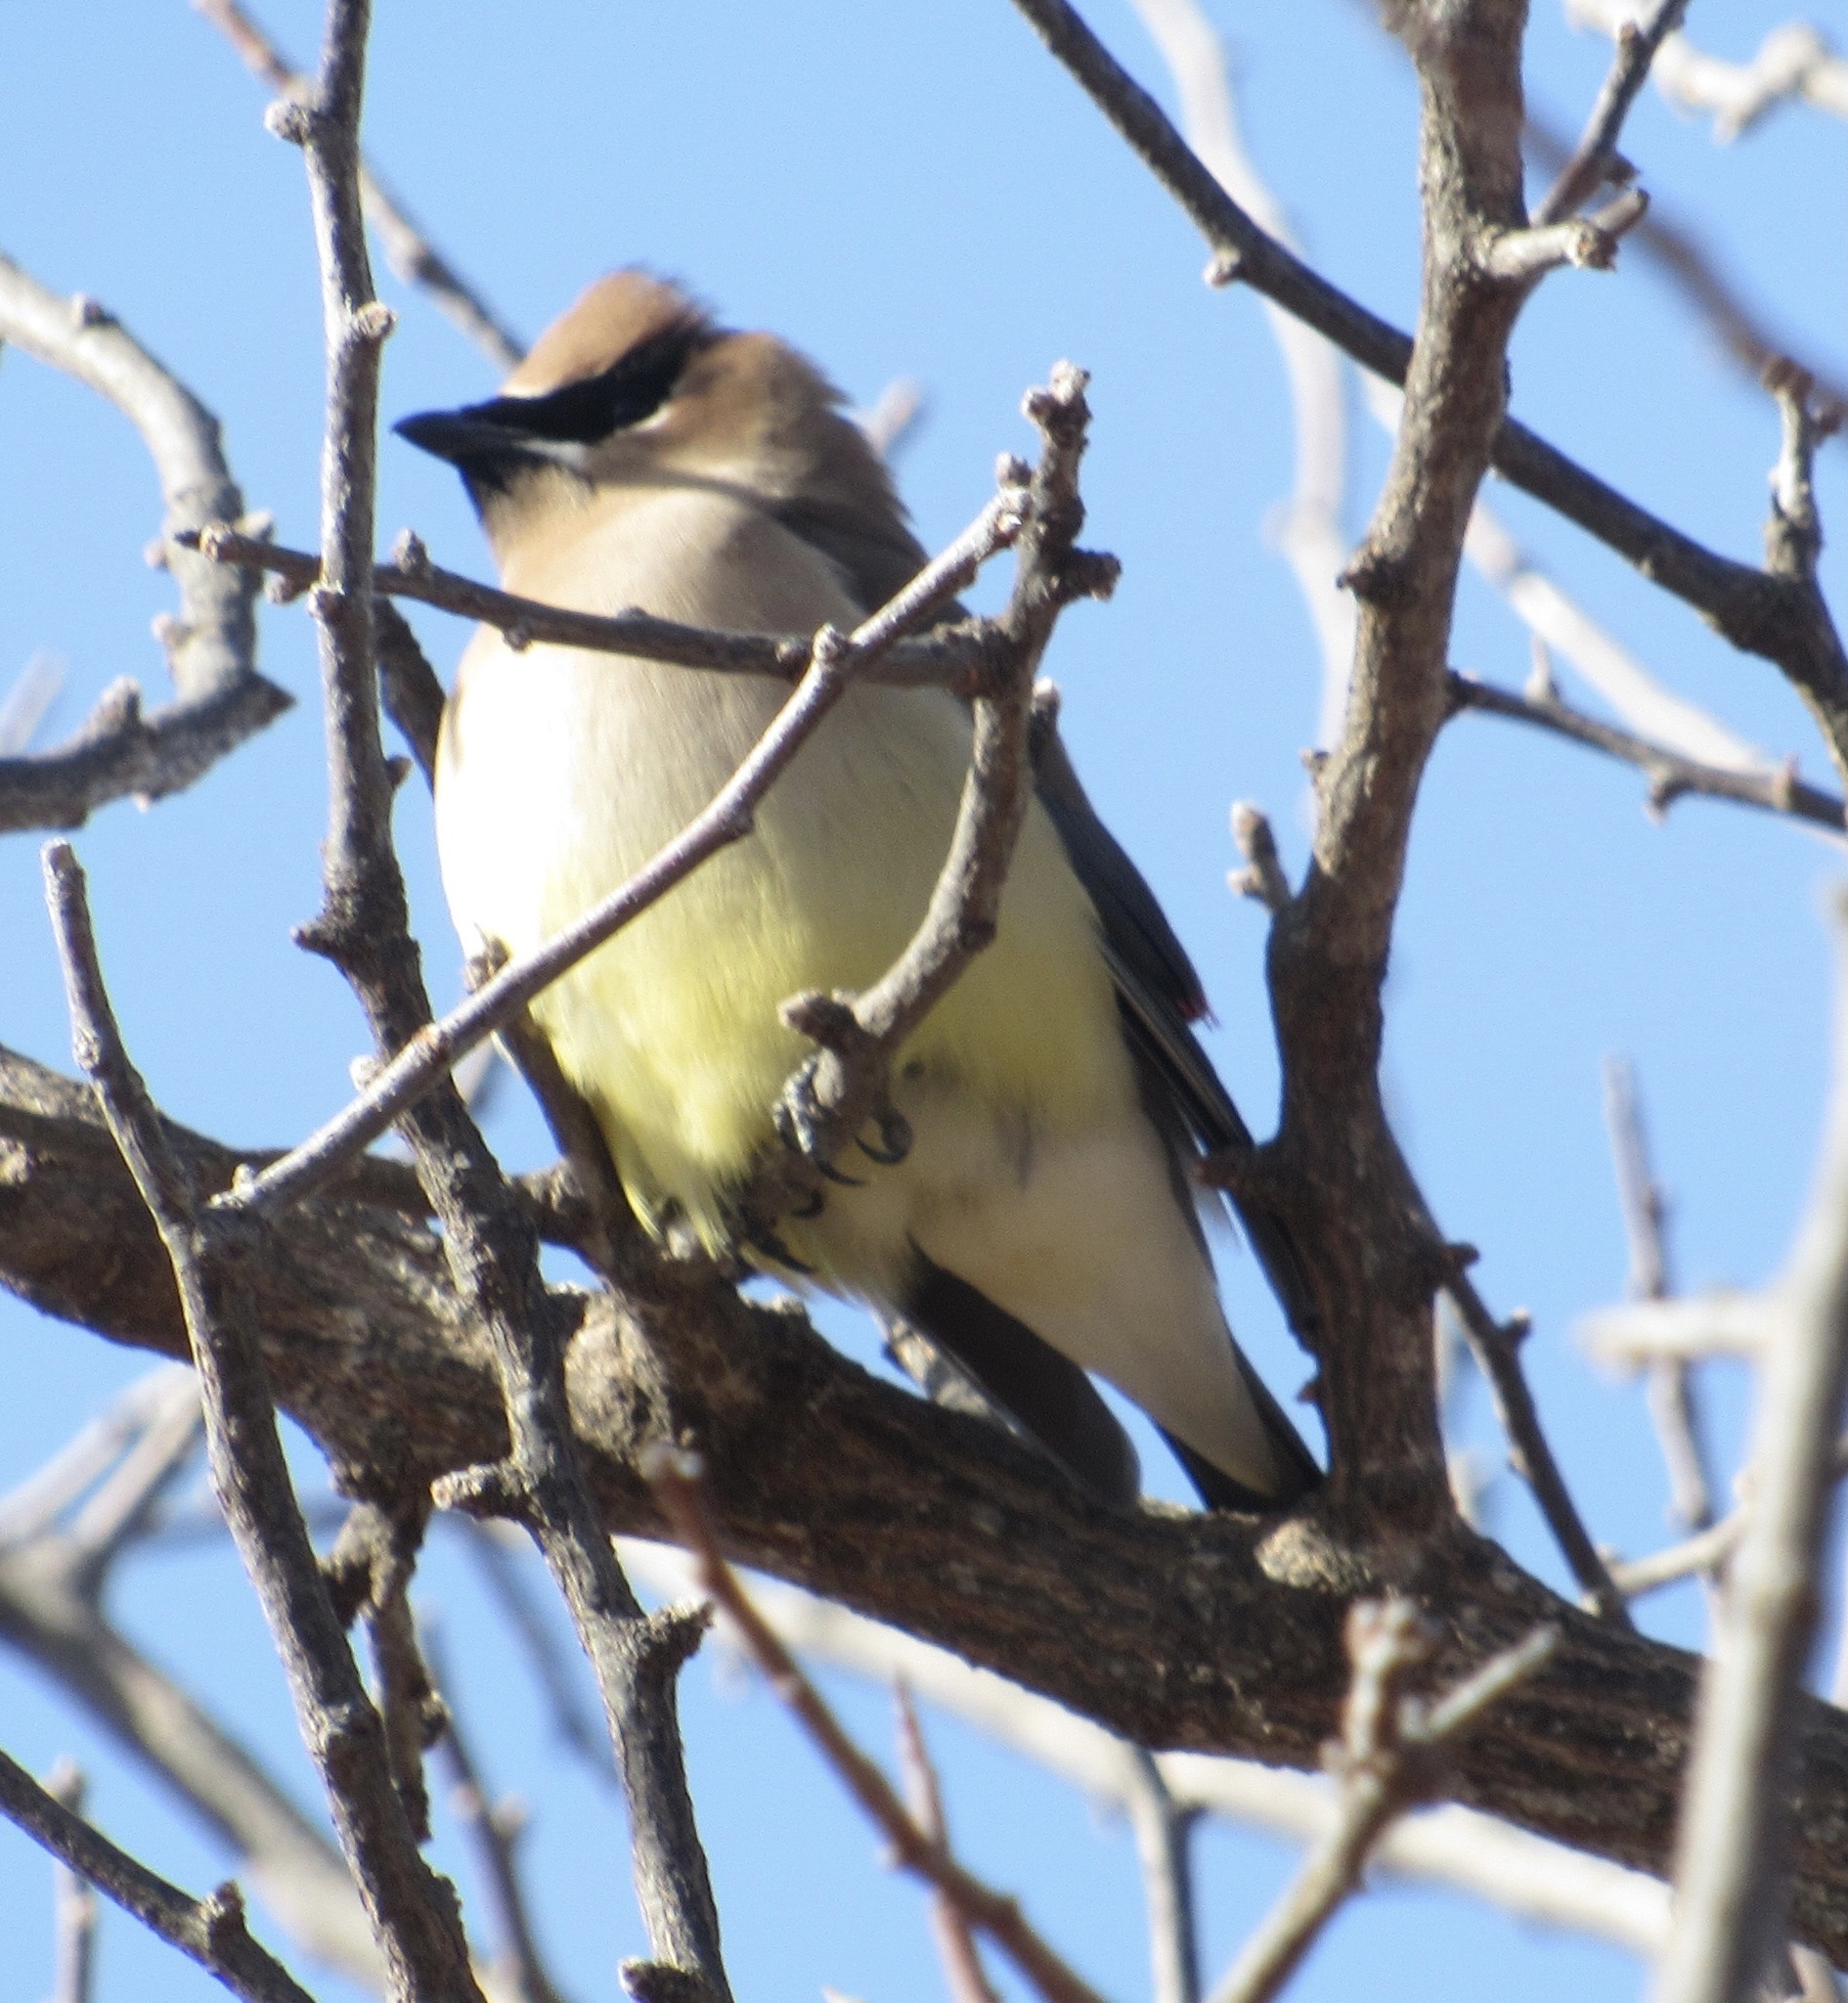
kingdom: Animalia
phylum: Chordata
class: Aves
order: Passeriformes
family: Bombycillidae
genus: Bombycilla
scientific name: Bombycilla cedrorum
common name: Cedar waxwing
